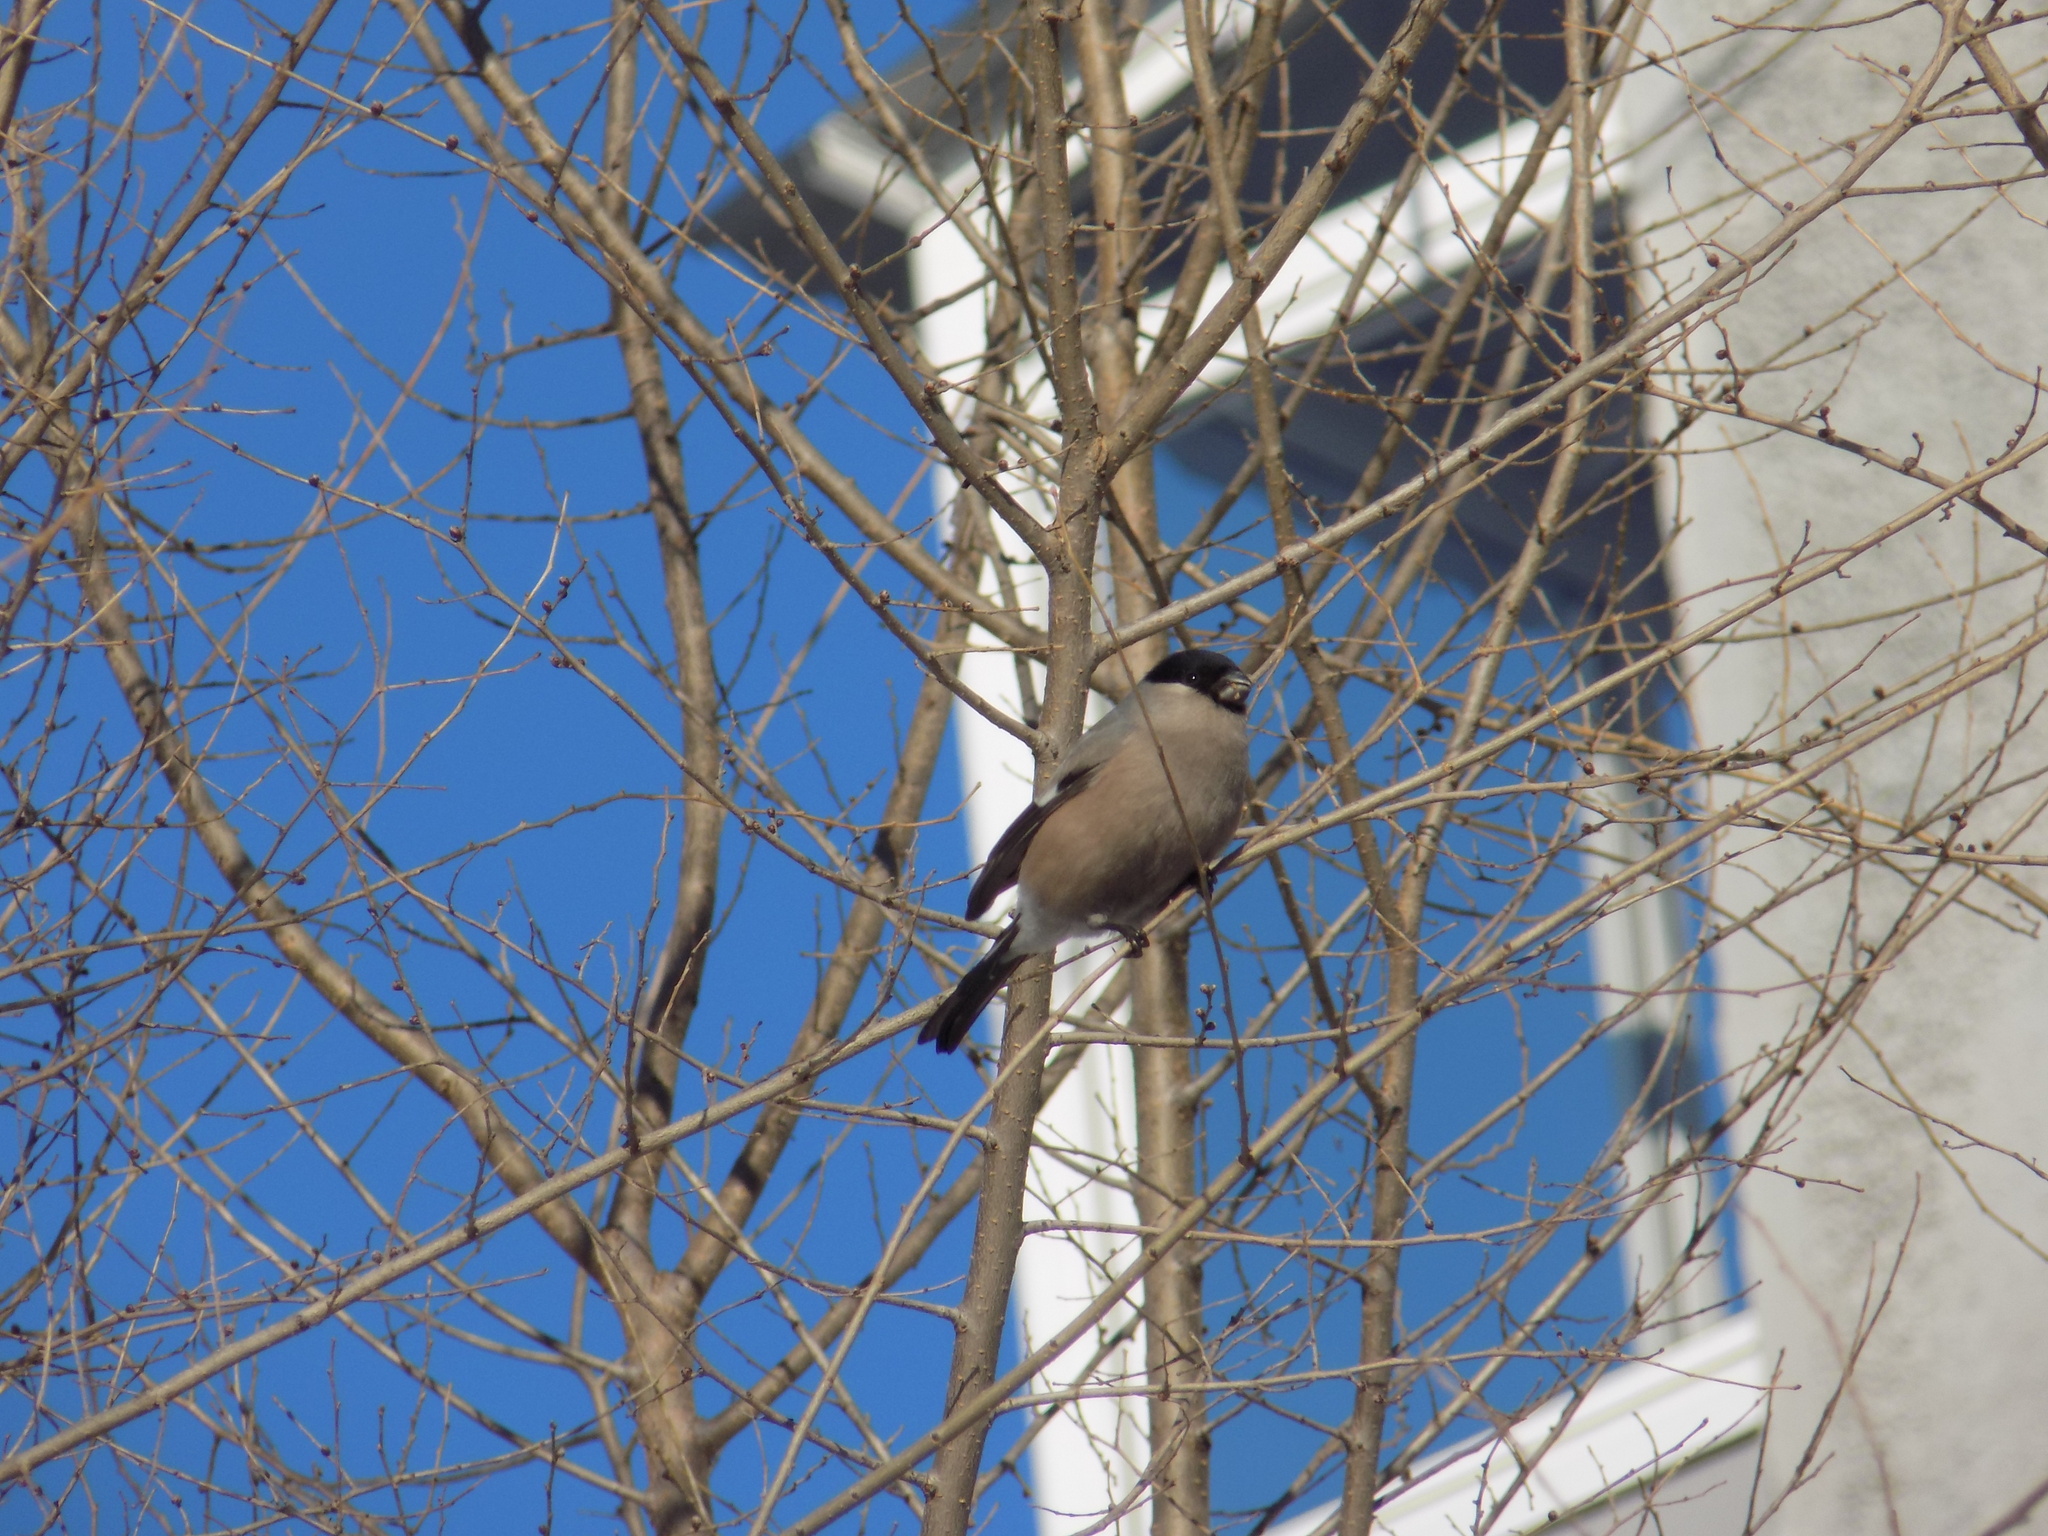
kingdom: Animalia
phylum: Chordata
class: Aves
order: Passeriformes
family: Fringillidae
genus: Pyrrhula
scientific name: Pyrrhula pyrrhula
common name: Eurasian bullfinch
